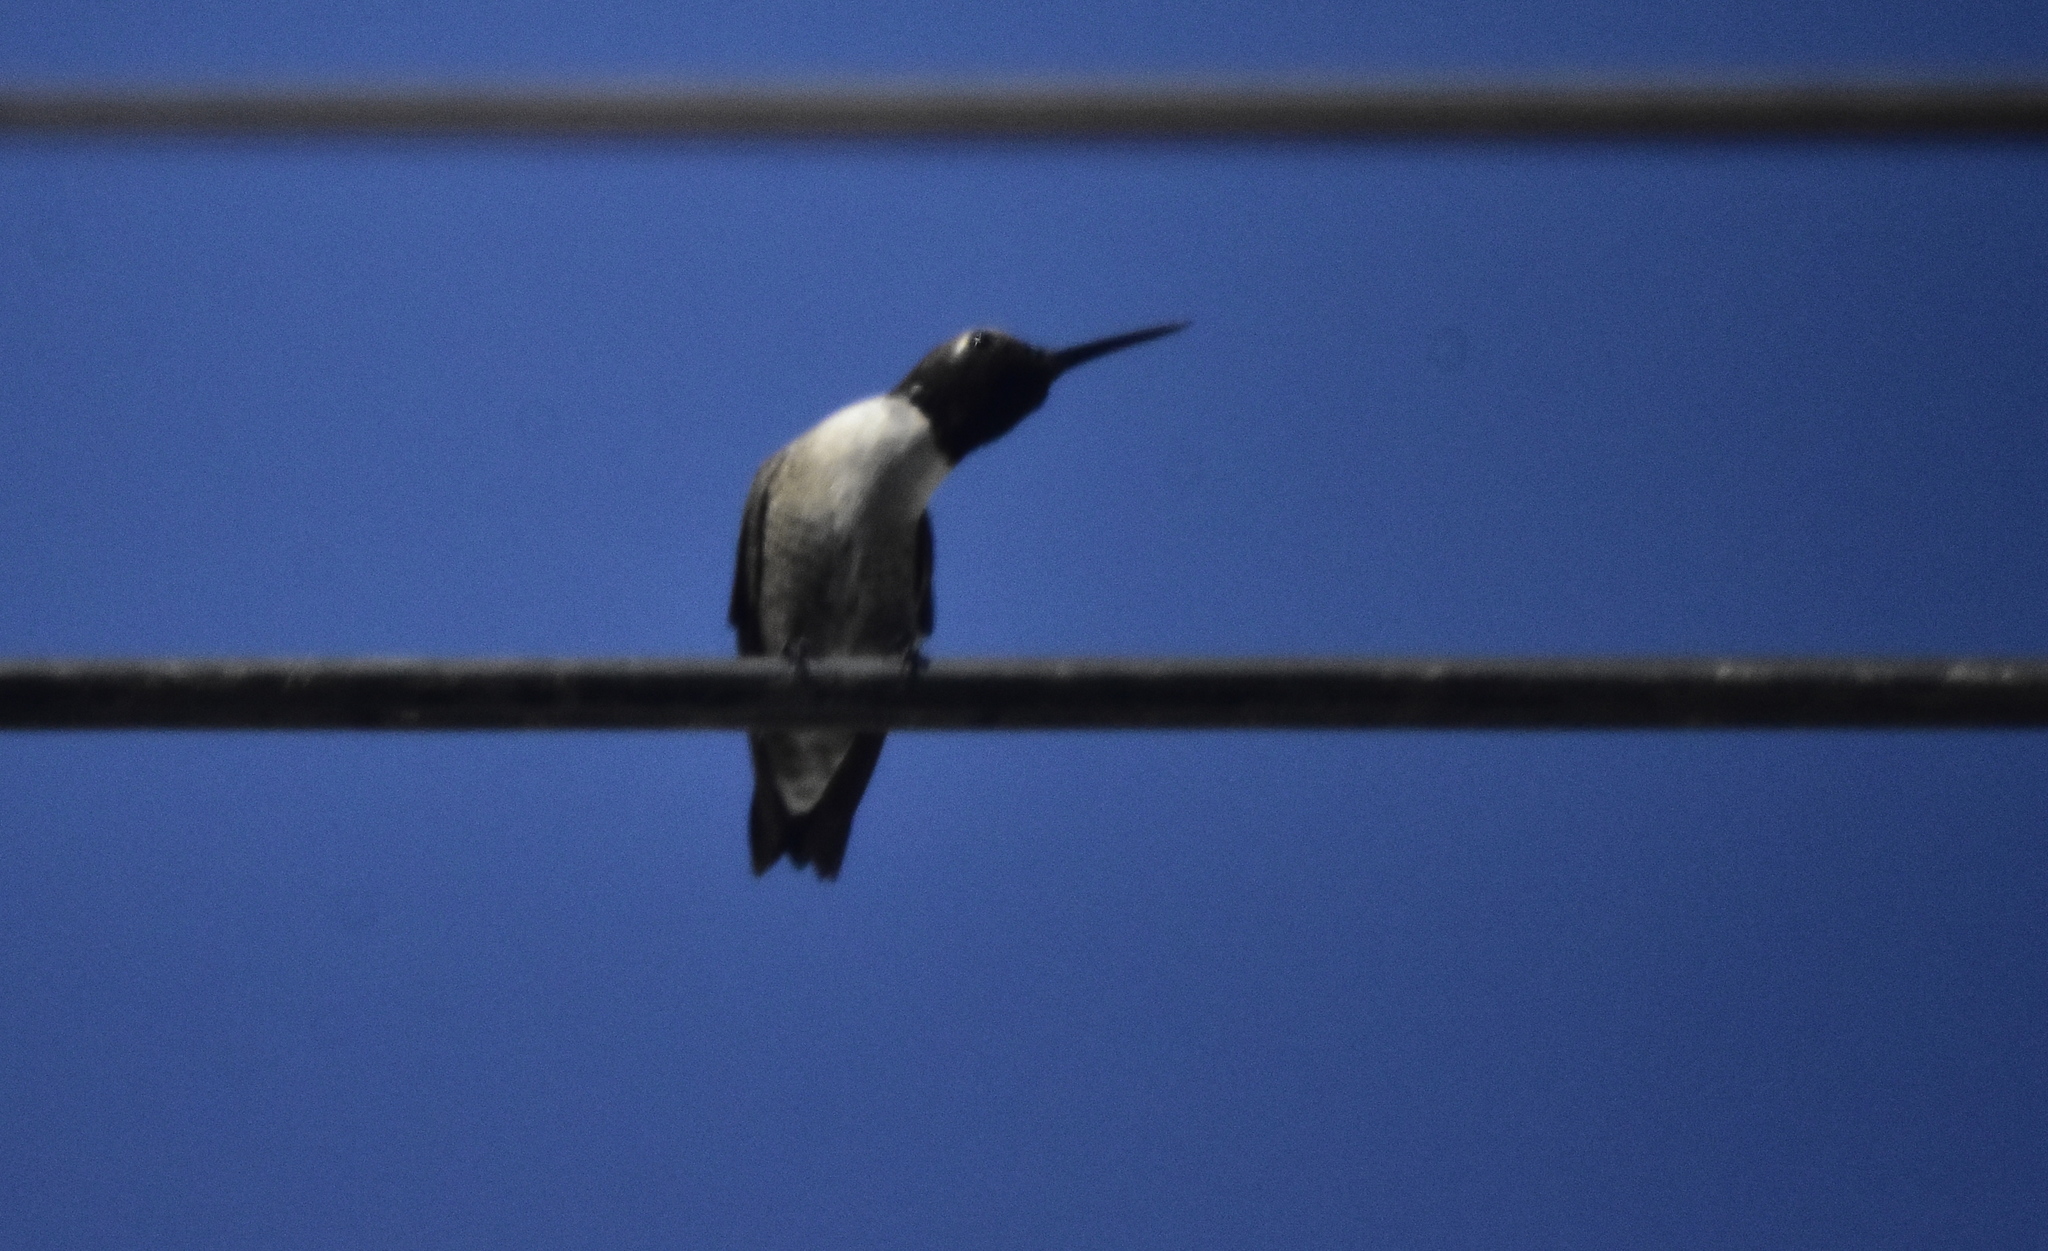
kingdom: Animalia
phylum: Chordata
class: Aves
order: Apodiformes
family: Trochilidae
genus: Archilochus
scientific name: Archilochus alexandri
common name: Black-chinned hummingbird
